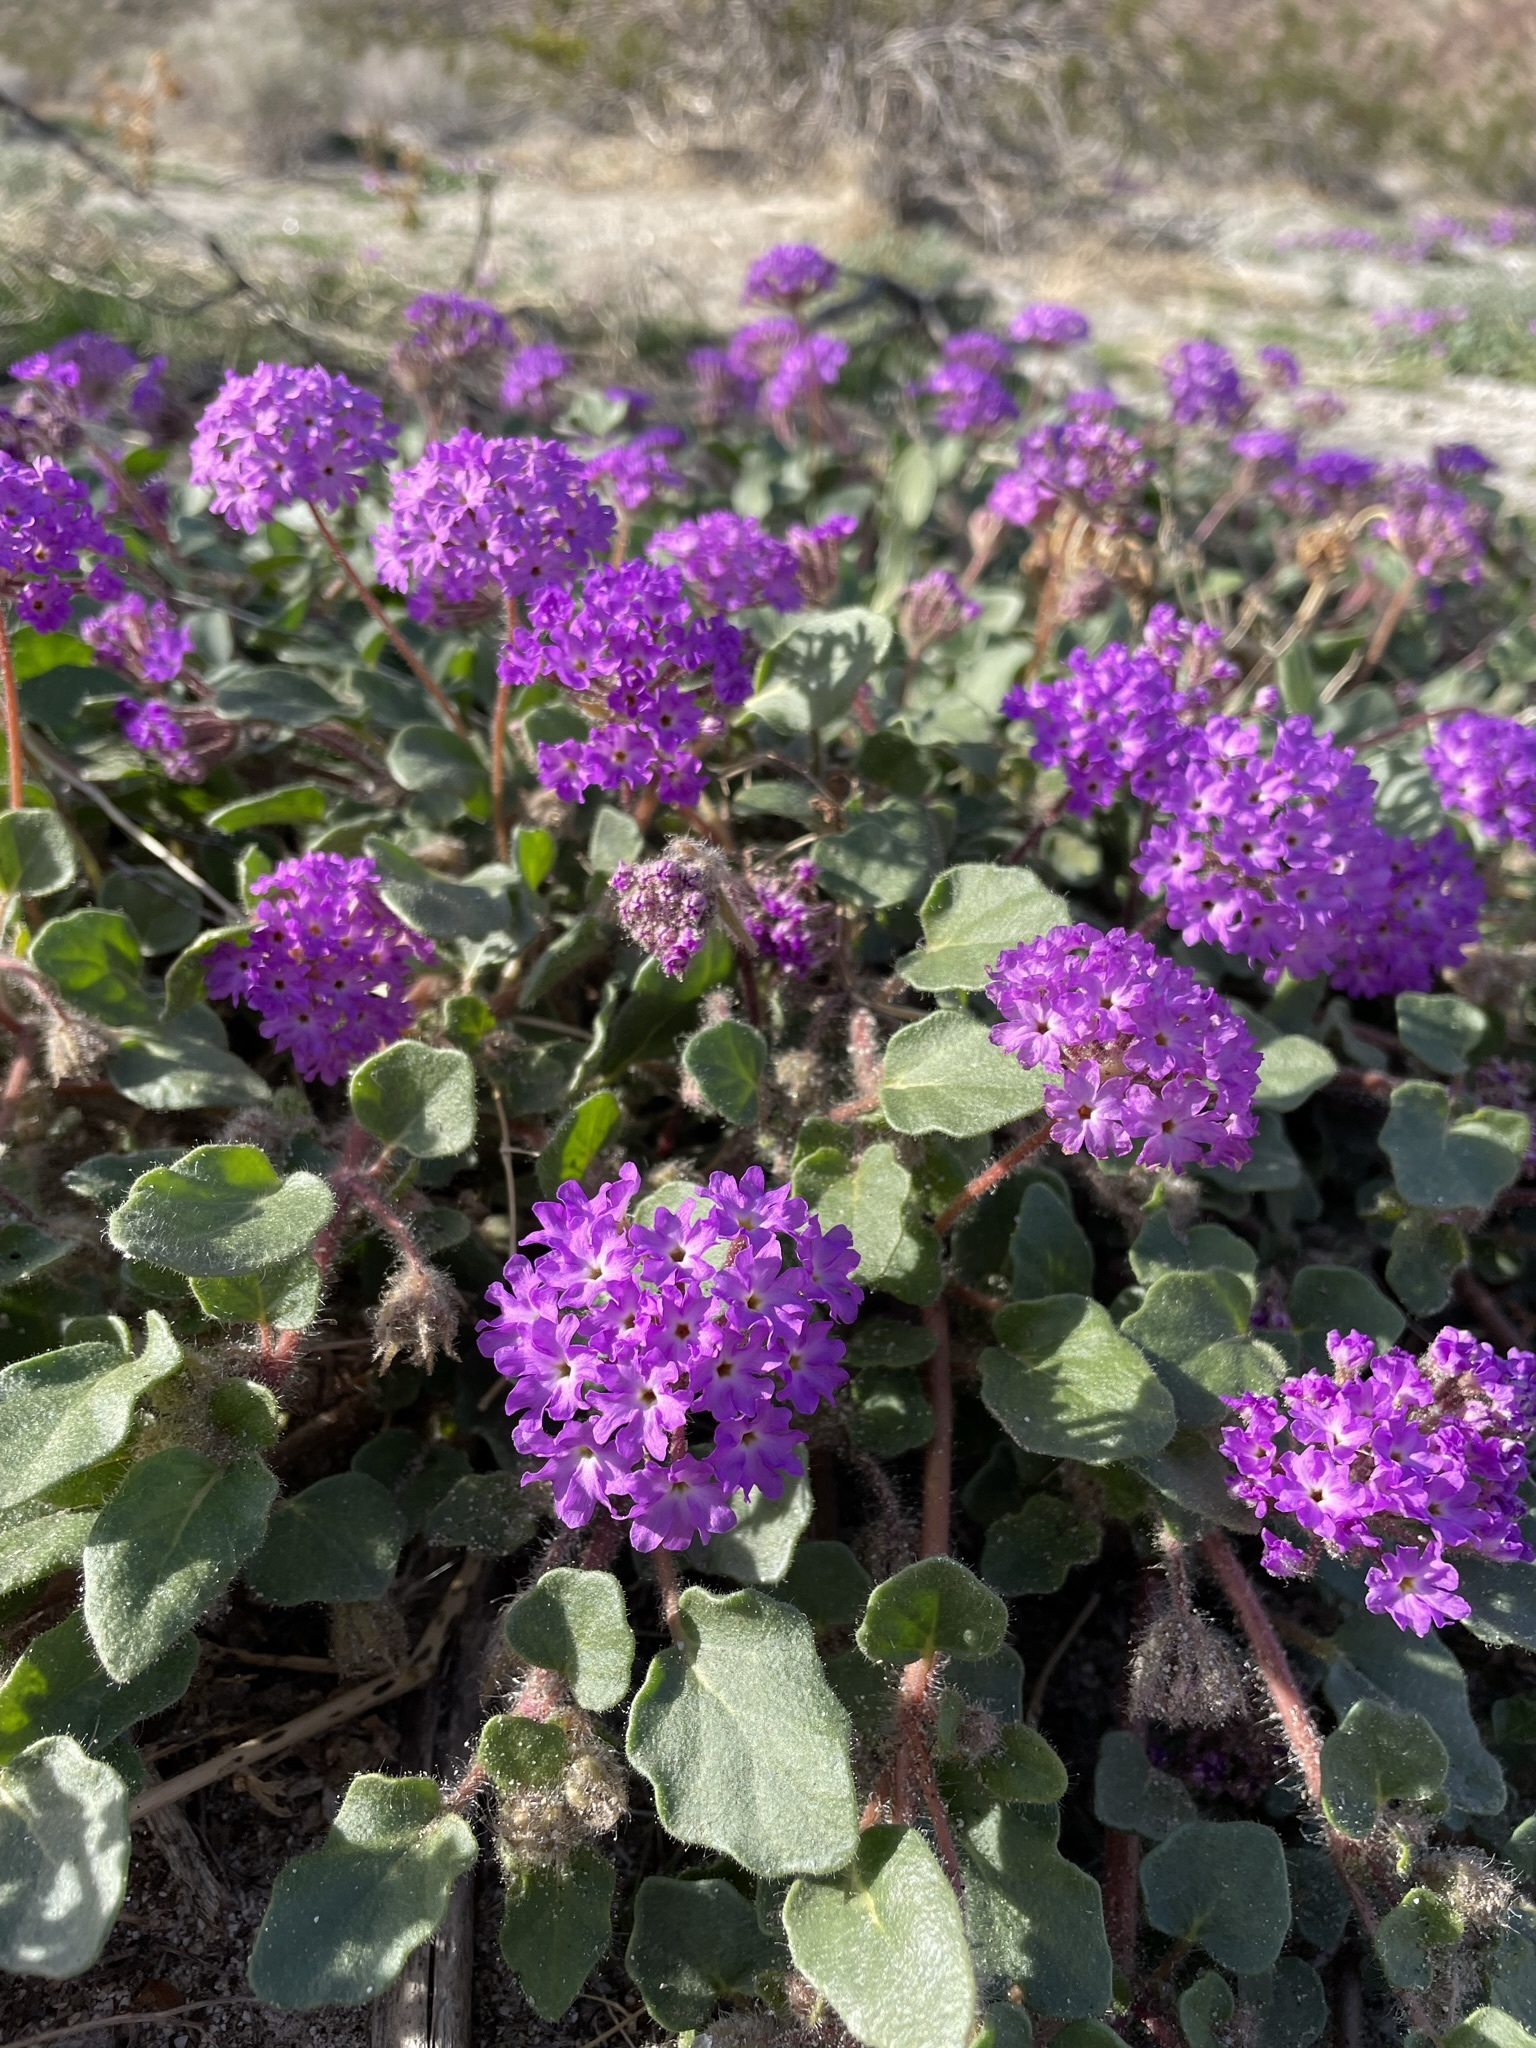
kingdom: Plantae
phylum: Tracheophyta
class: Magnoliopsida
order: Caryophyllales
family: Nyctaginaceae
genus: Abronia
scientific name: Abronia villosa
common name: Desert sand-verbena
